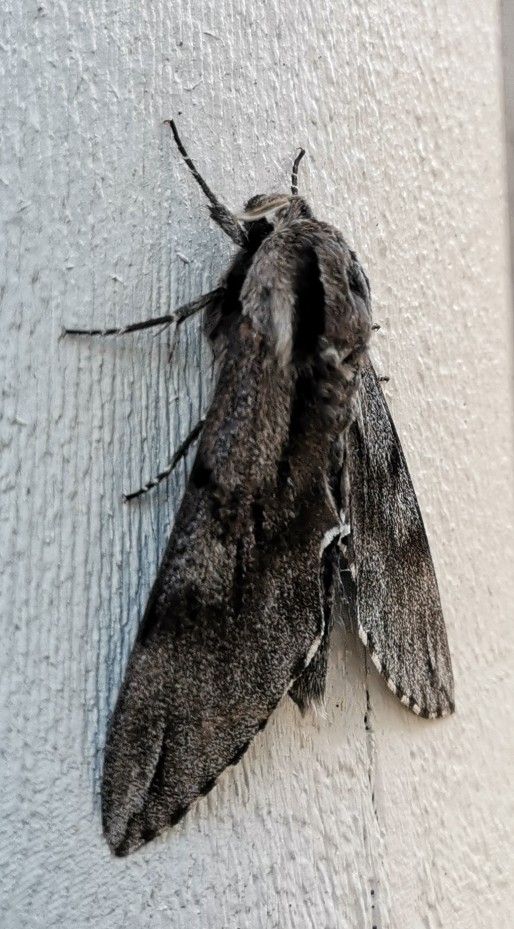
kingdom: Animalia
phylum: Arthropoda
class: Insecta
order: Lepidoptera
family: Sphingidae
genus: Sphinx
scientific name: Sphinx pinastri
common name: Pine hawk-moth
